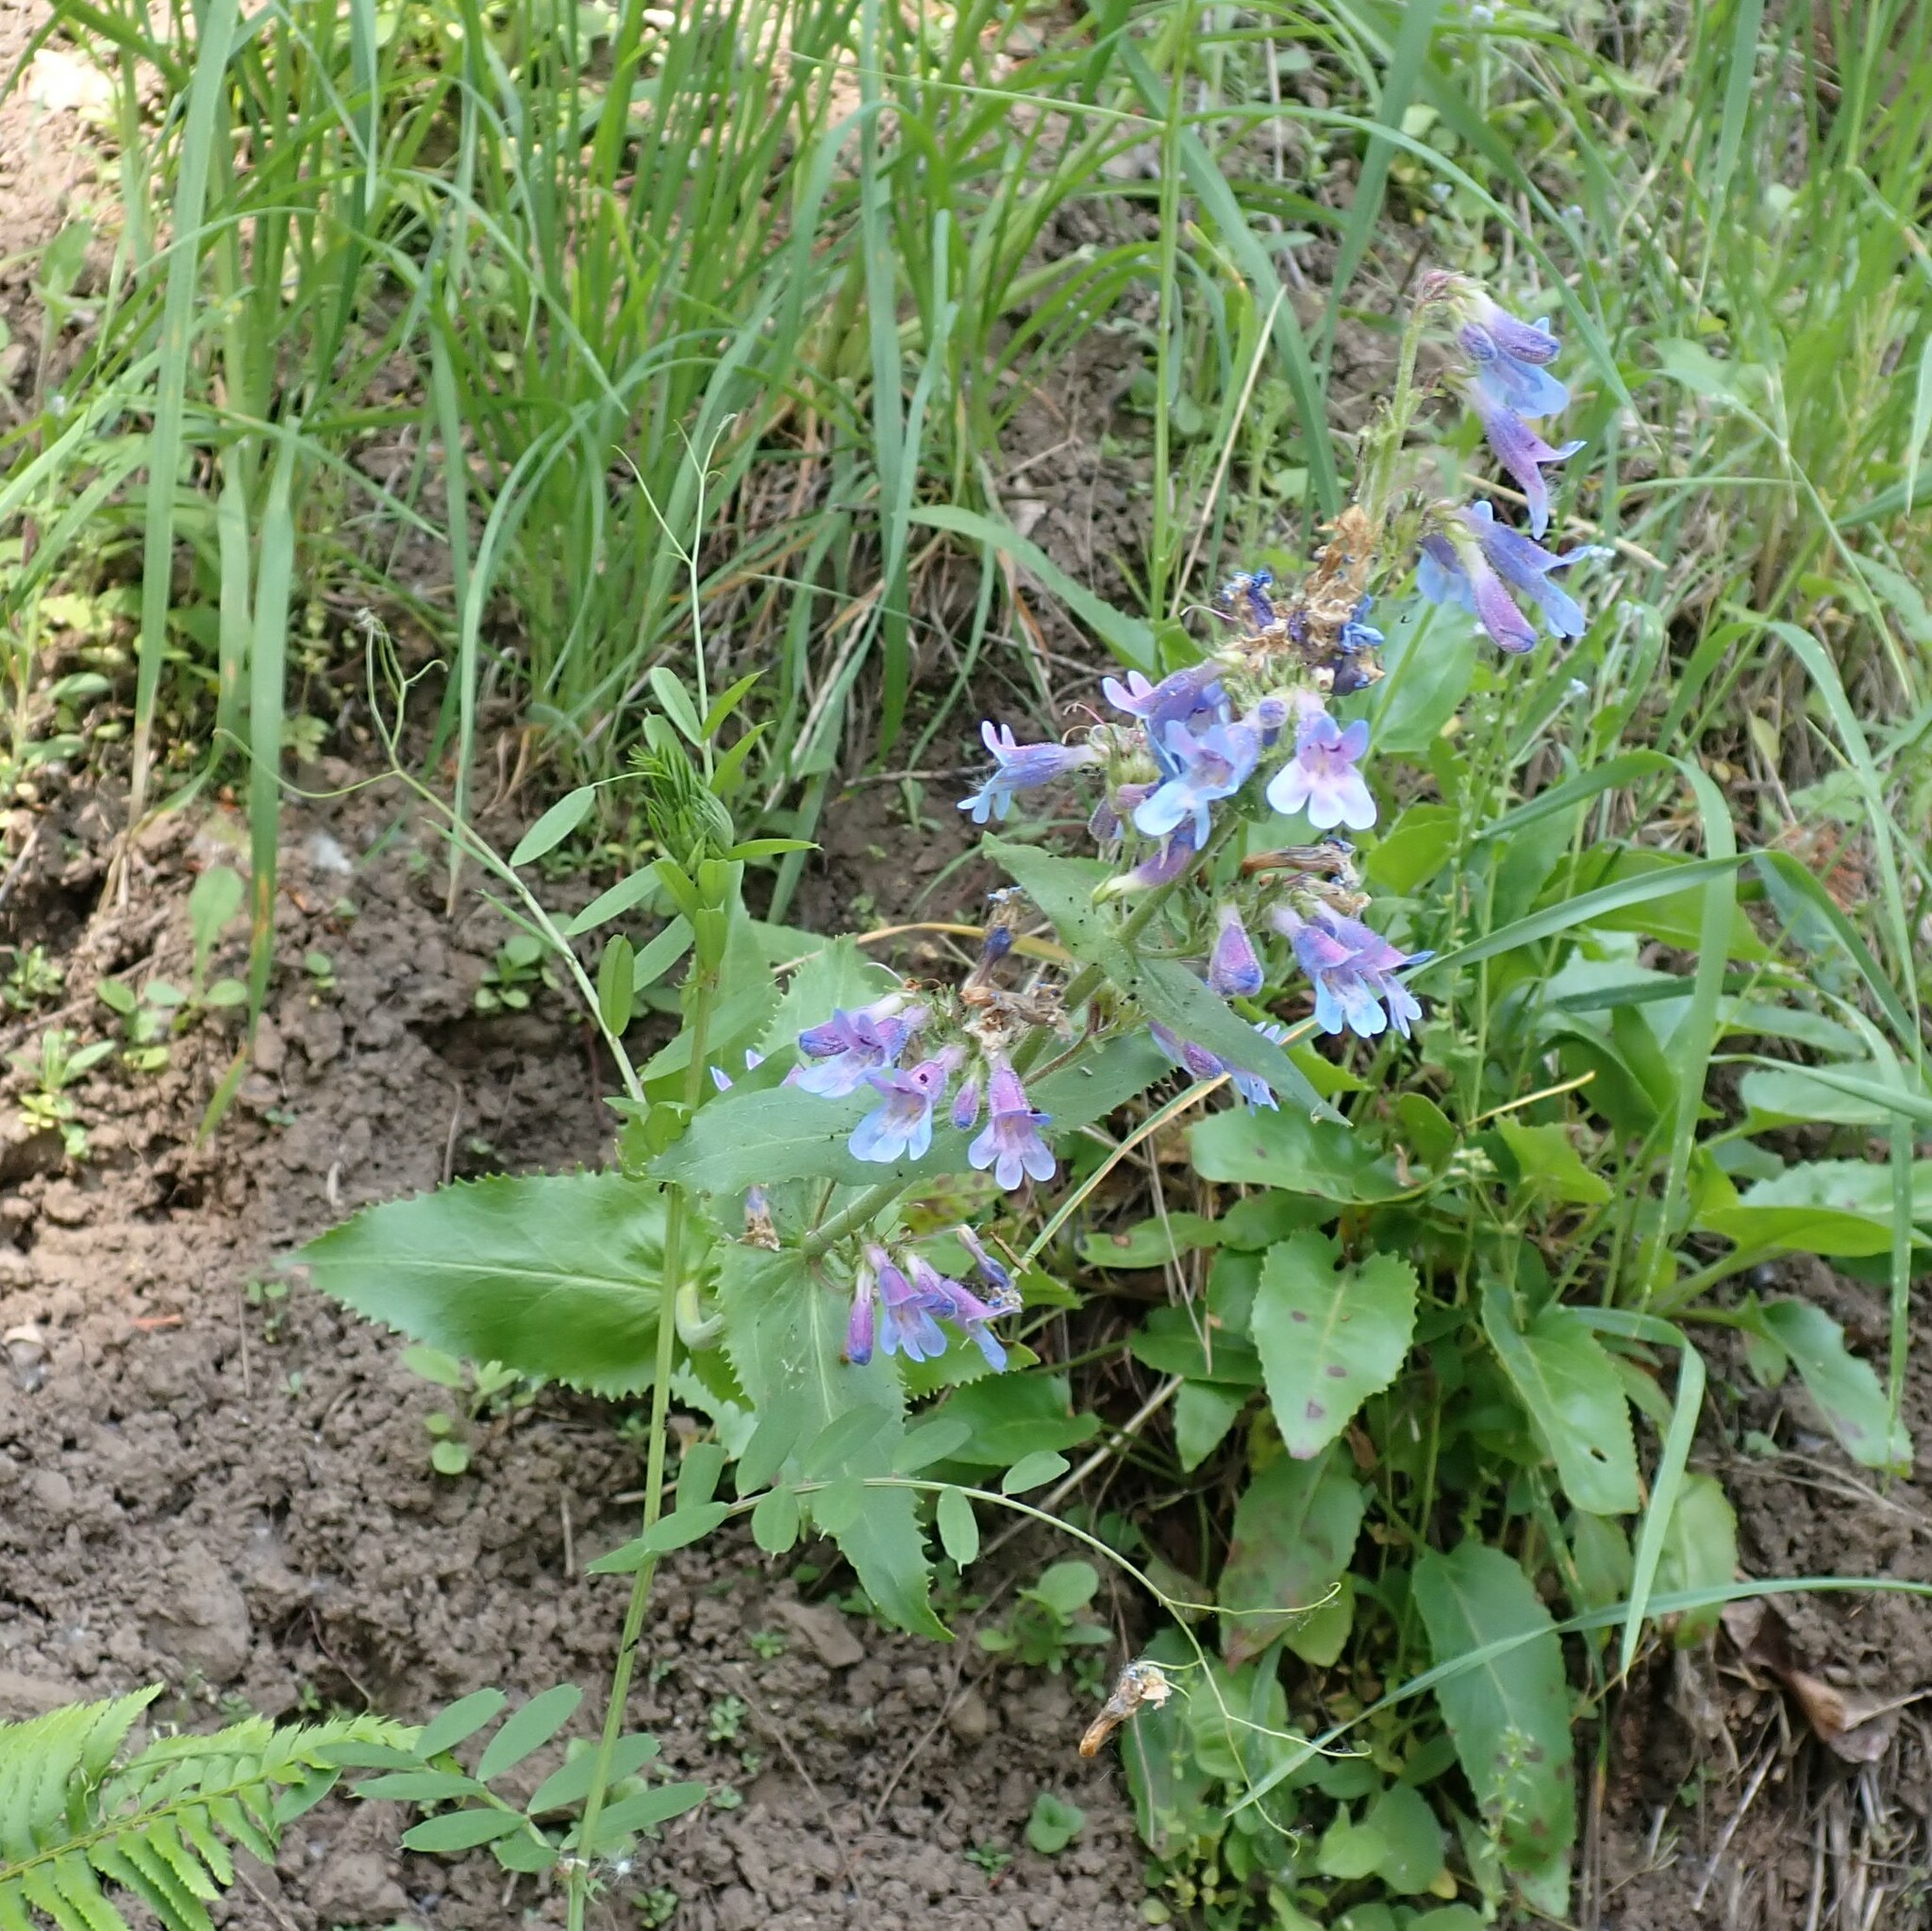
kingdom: Plantae
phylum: Tracheophyta
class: Magnoliopsida
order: Lamiales
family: Plantaginaceae
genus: Penstemon
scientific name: Penstemon ovatus
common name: Broad-leaved beardtongue
